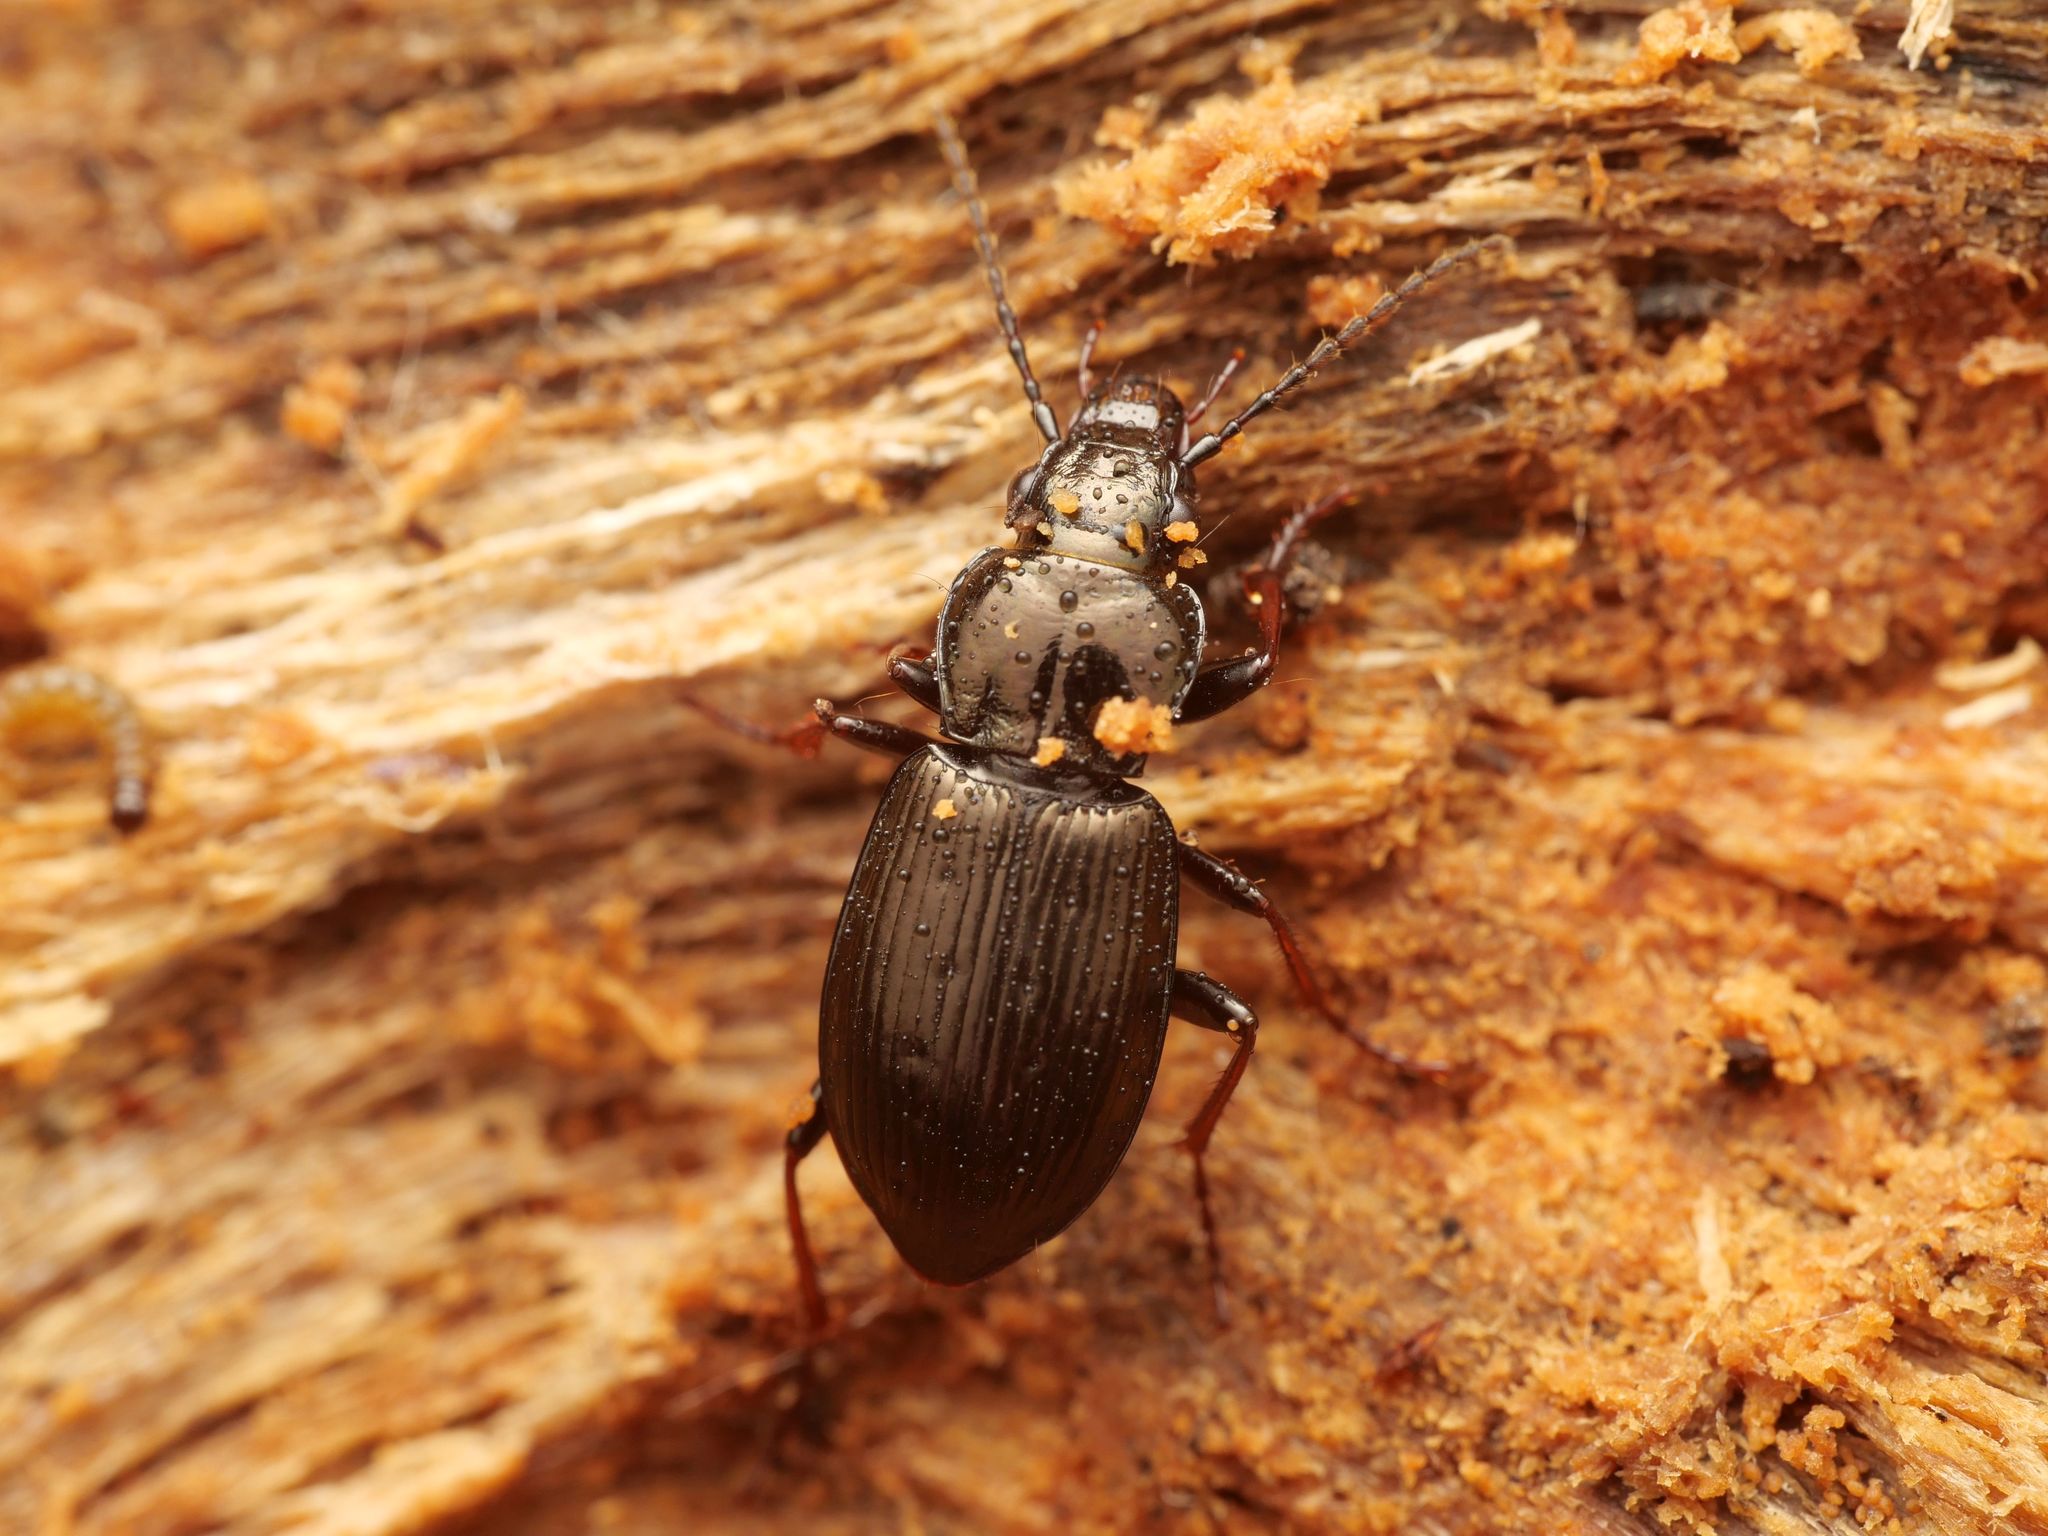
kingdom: Animalia
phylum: Arthropoda
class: Insecta
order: Coleoptera
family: Carabidae
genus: Pterostichus
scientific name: Pterostichus oblongopunctatus
